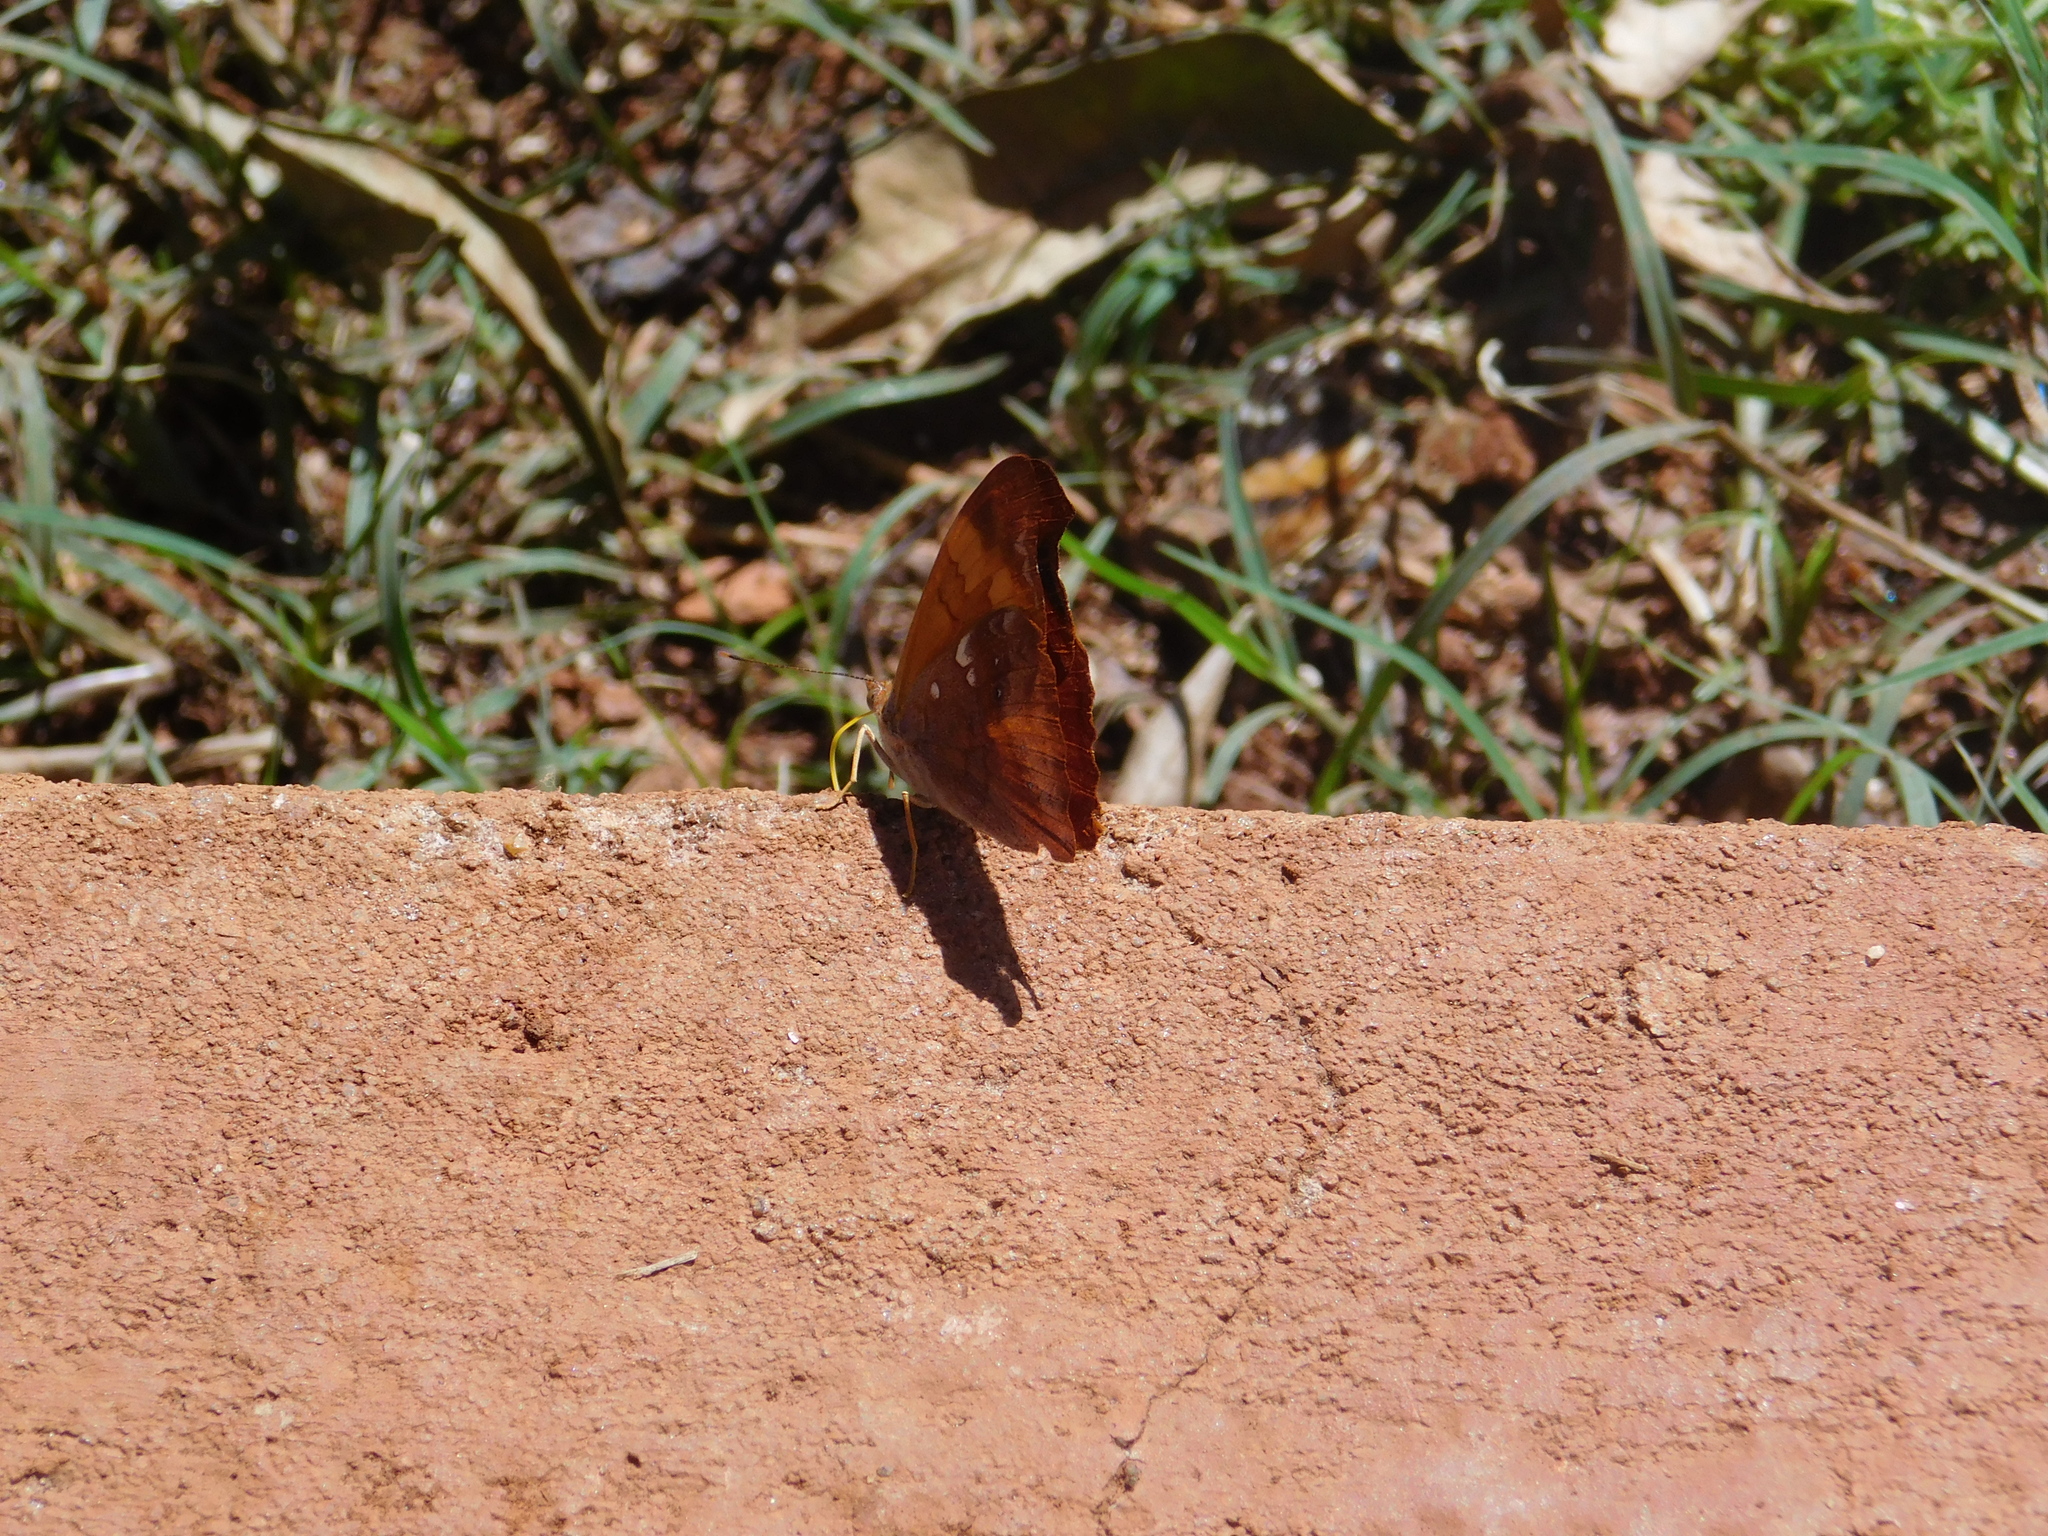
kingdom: Animalia
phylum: Arthropoda
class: Insecta
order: Lepidoptera
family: Nymphalidae
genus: Temenis
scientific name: Temenis laothoe
